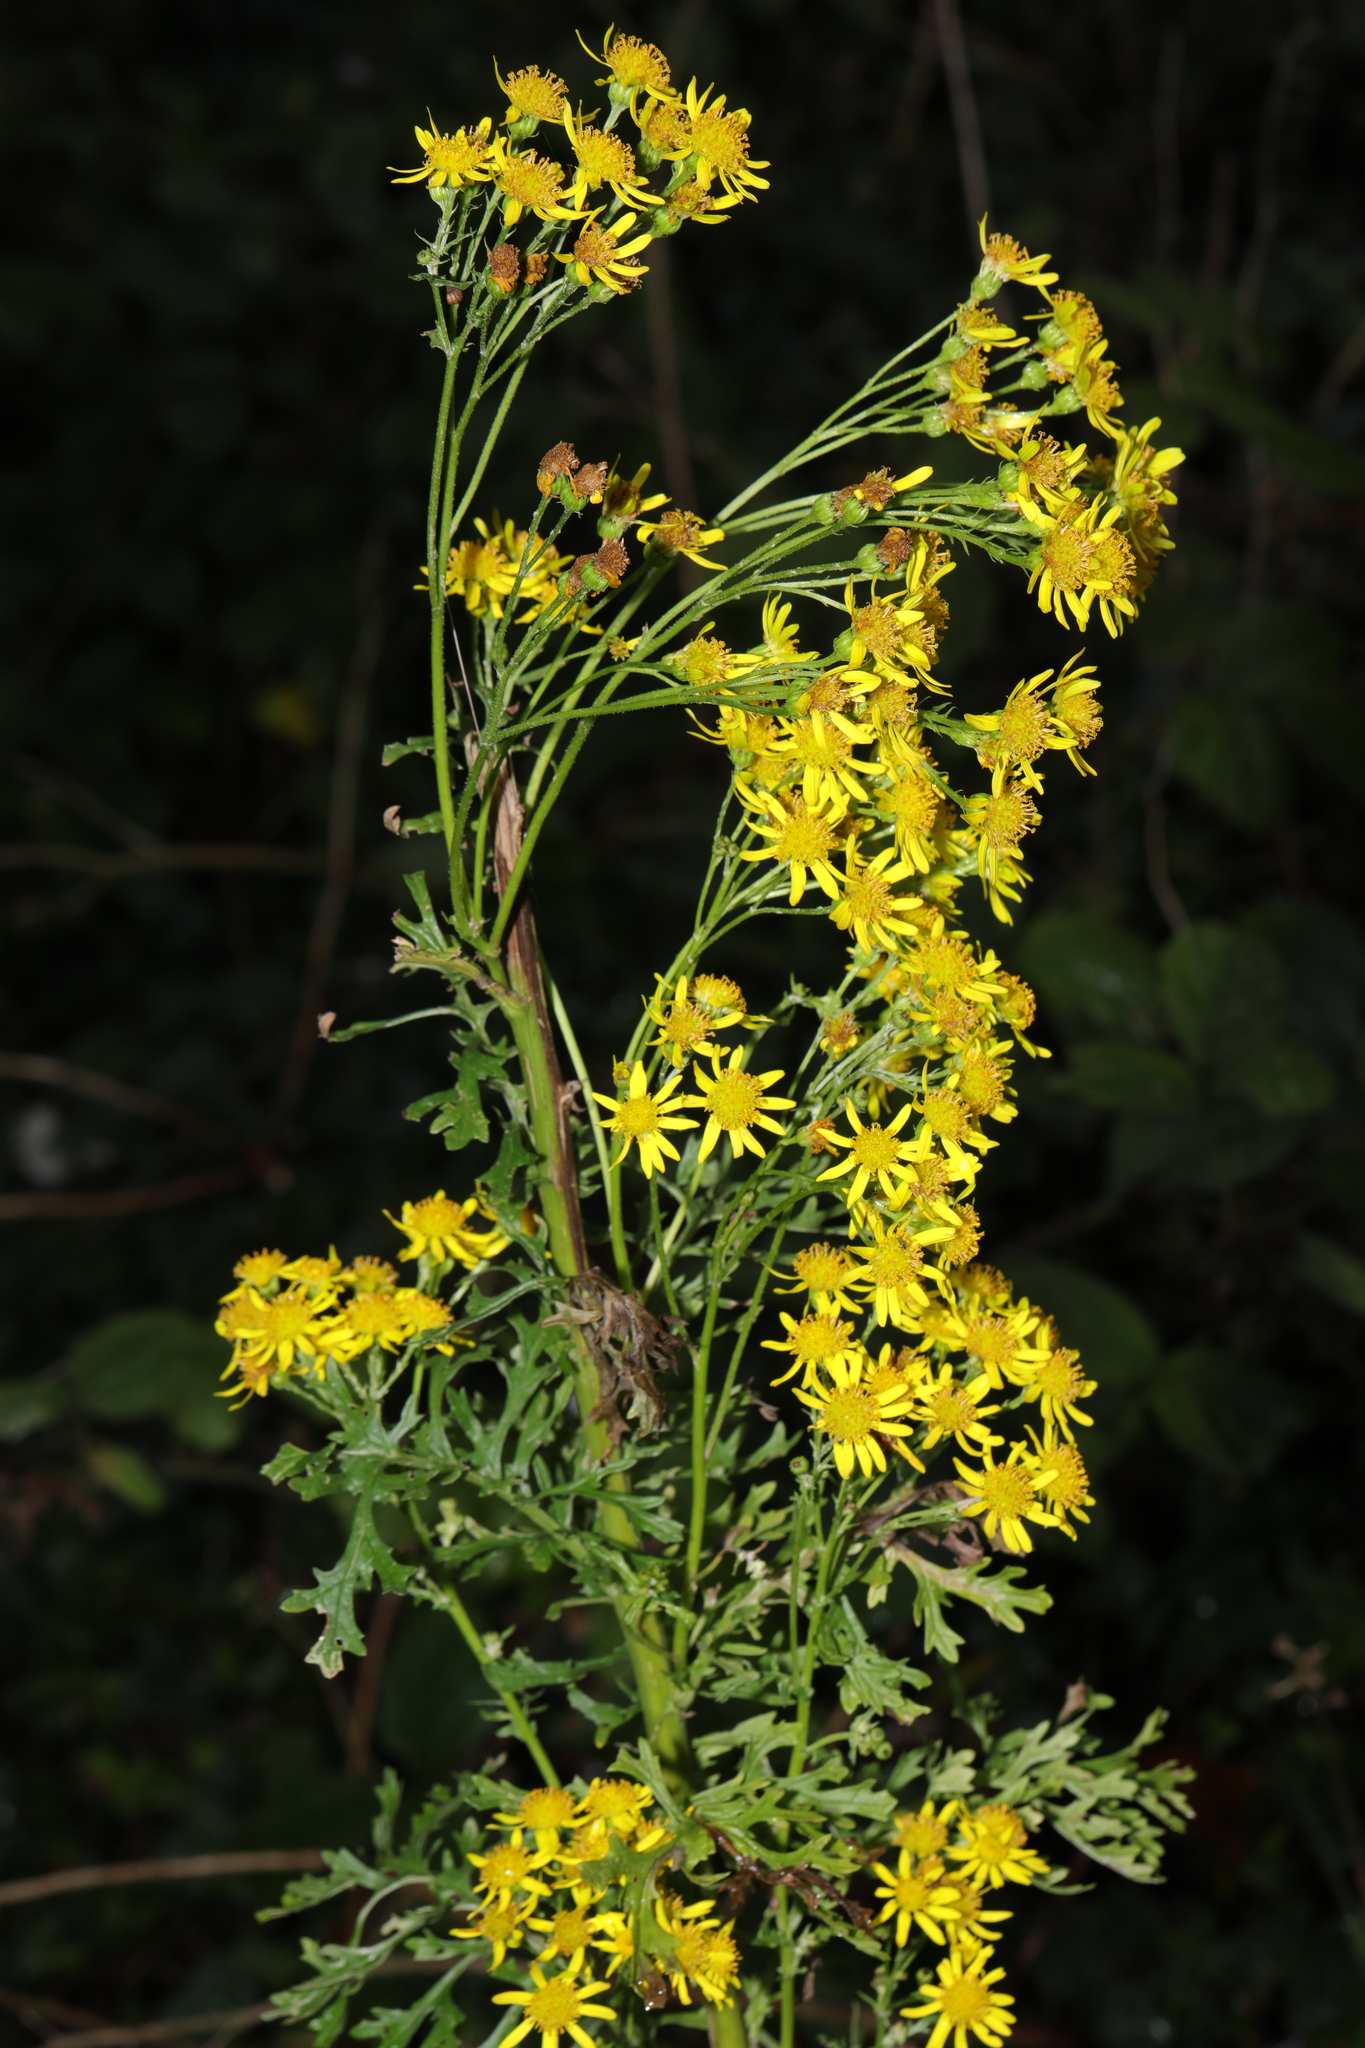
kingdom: Plantae
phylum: Tracheophyta
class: Magnoliopsida
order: Asterales
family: Asteraceae
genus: Jacobaea
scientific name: Jacobaea vulgaris
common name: Stinking willie
